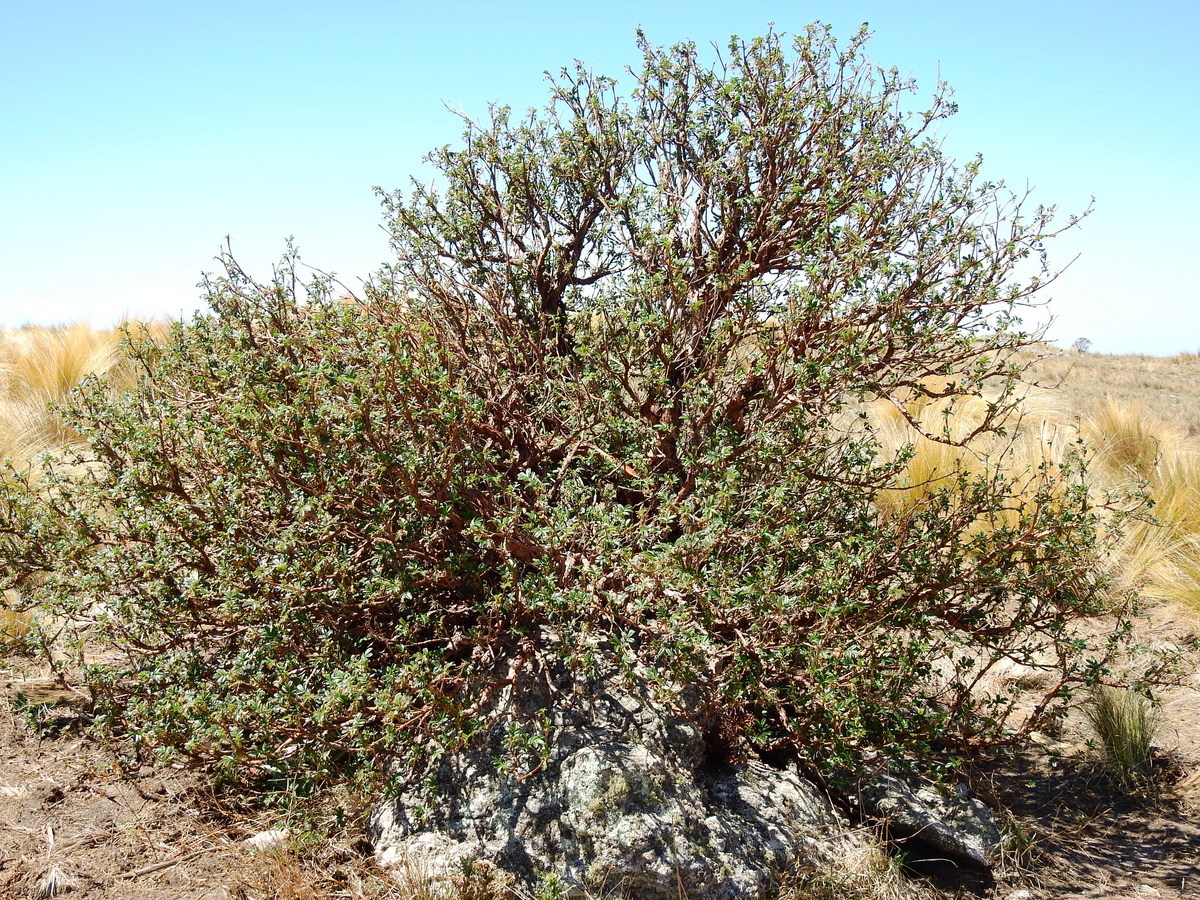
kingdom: Plantae
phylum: Tracheophyta
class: Magnoliopsida
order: Rosales
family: Rosaceae
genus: Polylepis
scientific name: Polylepis australis
